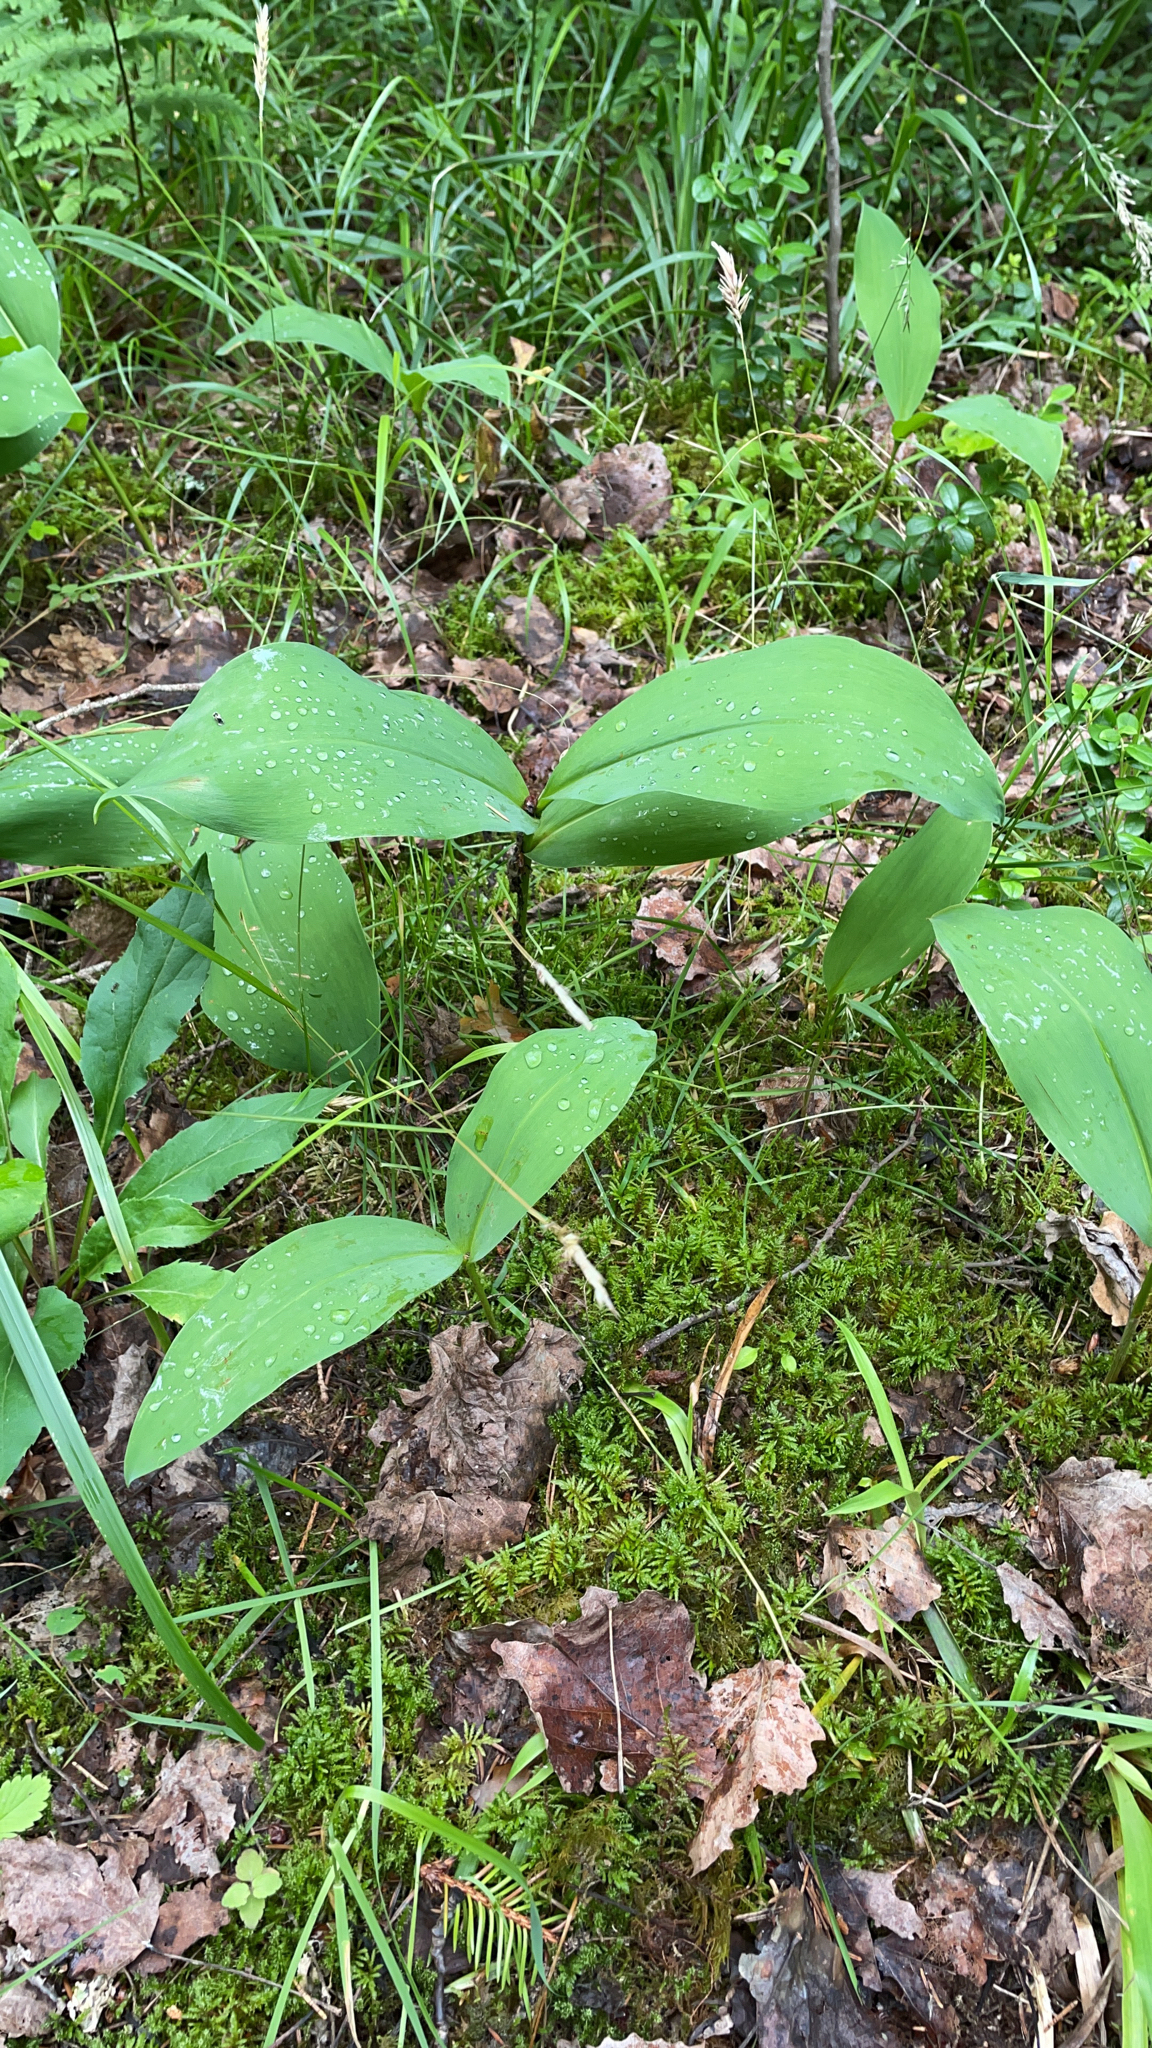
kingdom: Plantae
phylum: Tracheophyta
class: Liliopsida
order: Asparagales
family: Asparagaceae
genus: Convallaria
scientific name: Convallaria majalis
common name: Lily-of-the-valley
